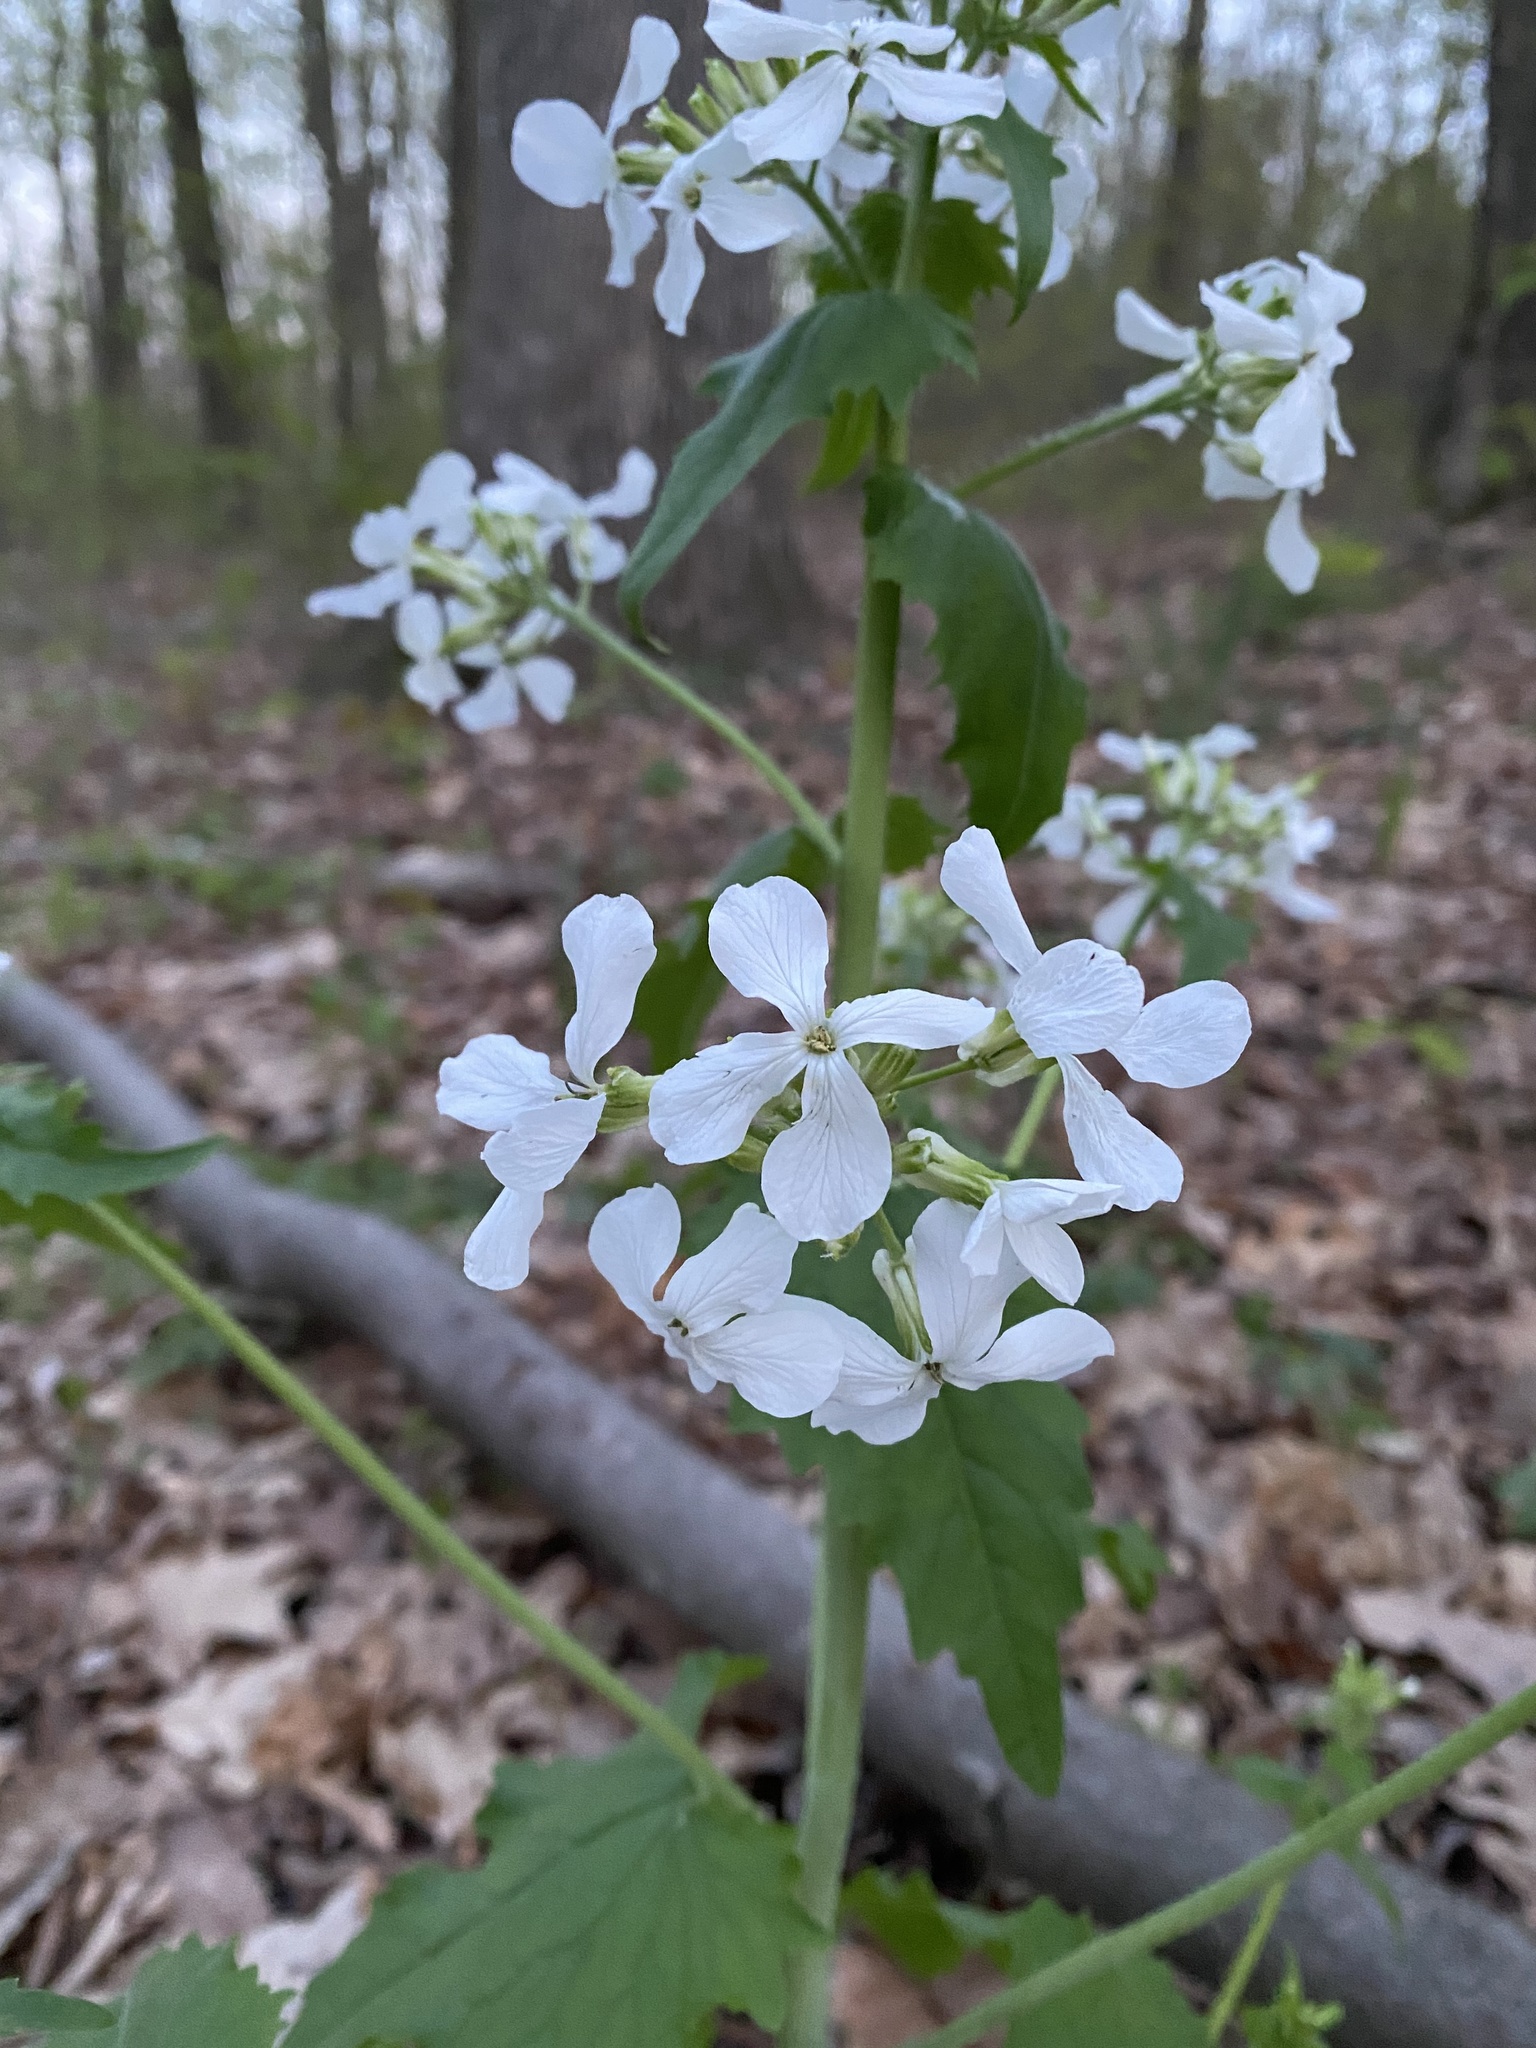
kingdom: Plantae
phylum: Tracheophyta
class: Magnoliopsida
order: Brassicales
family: Brassicaceae
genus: Lunaria
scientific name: Lunaria annua
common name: Honesty
